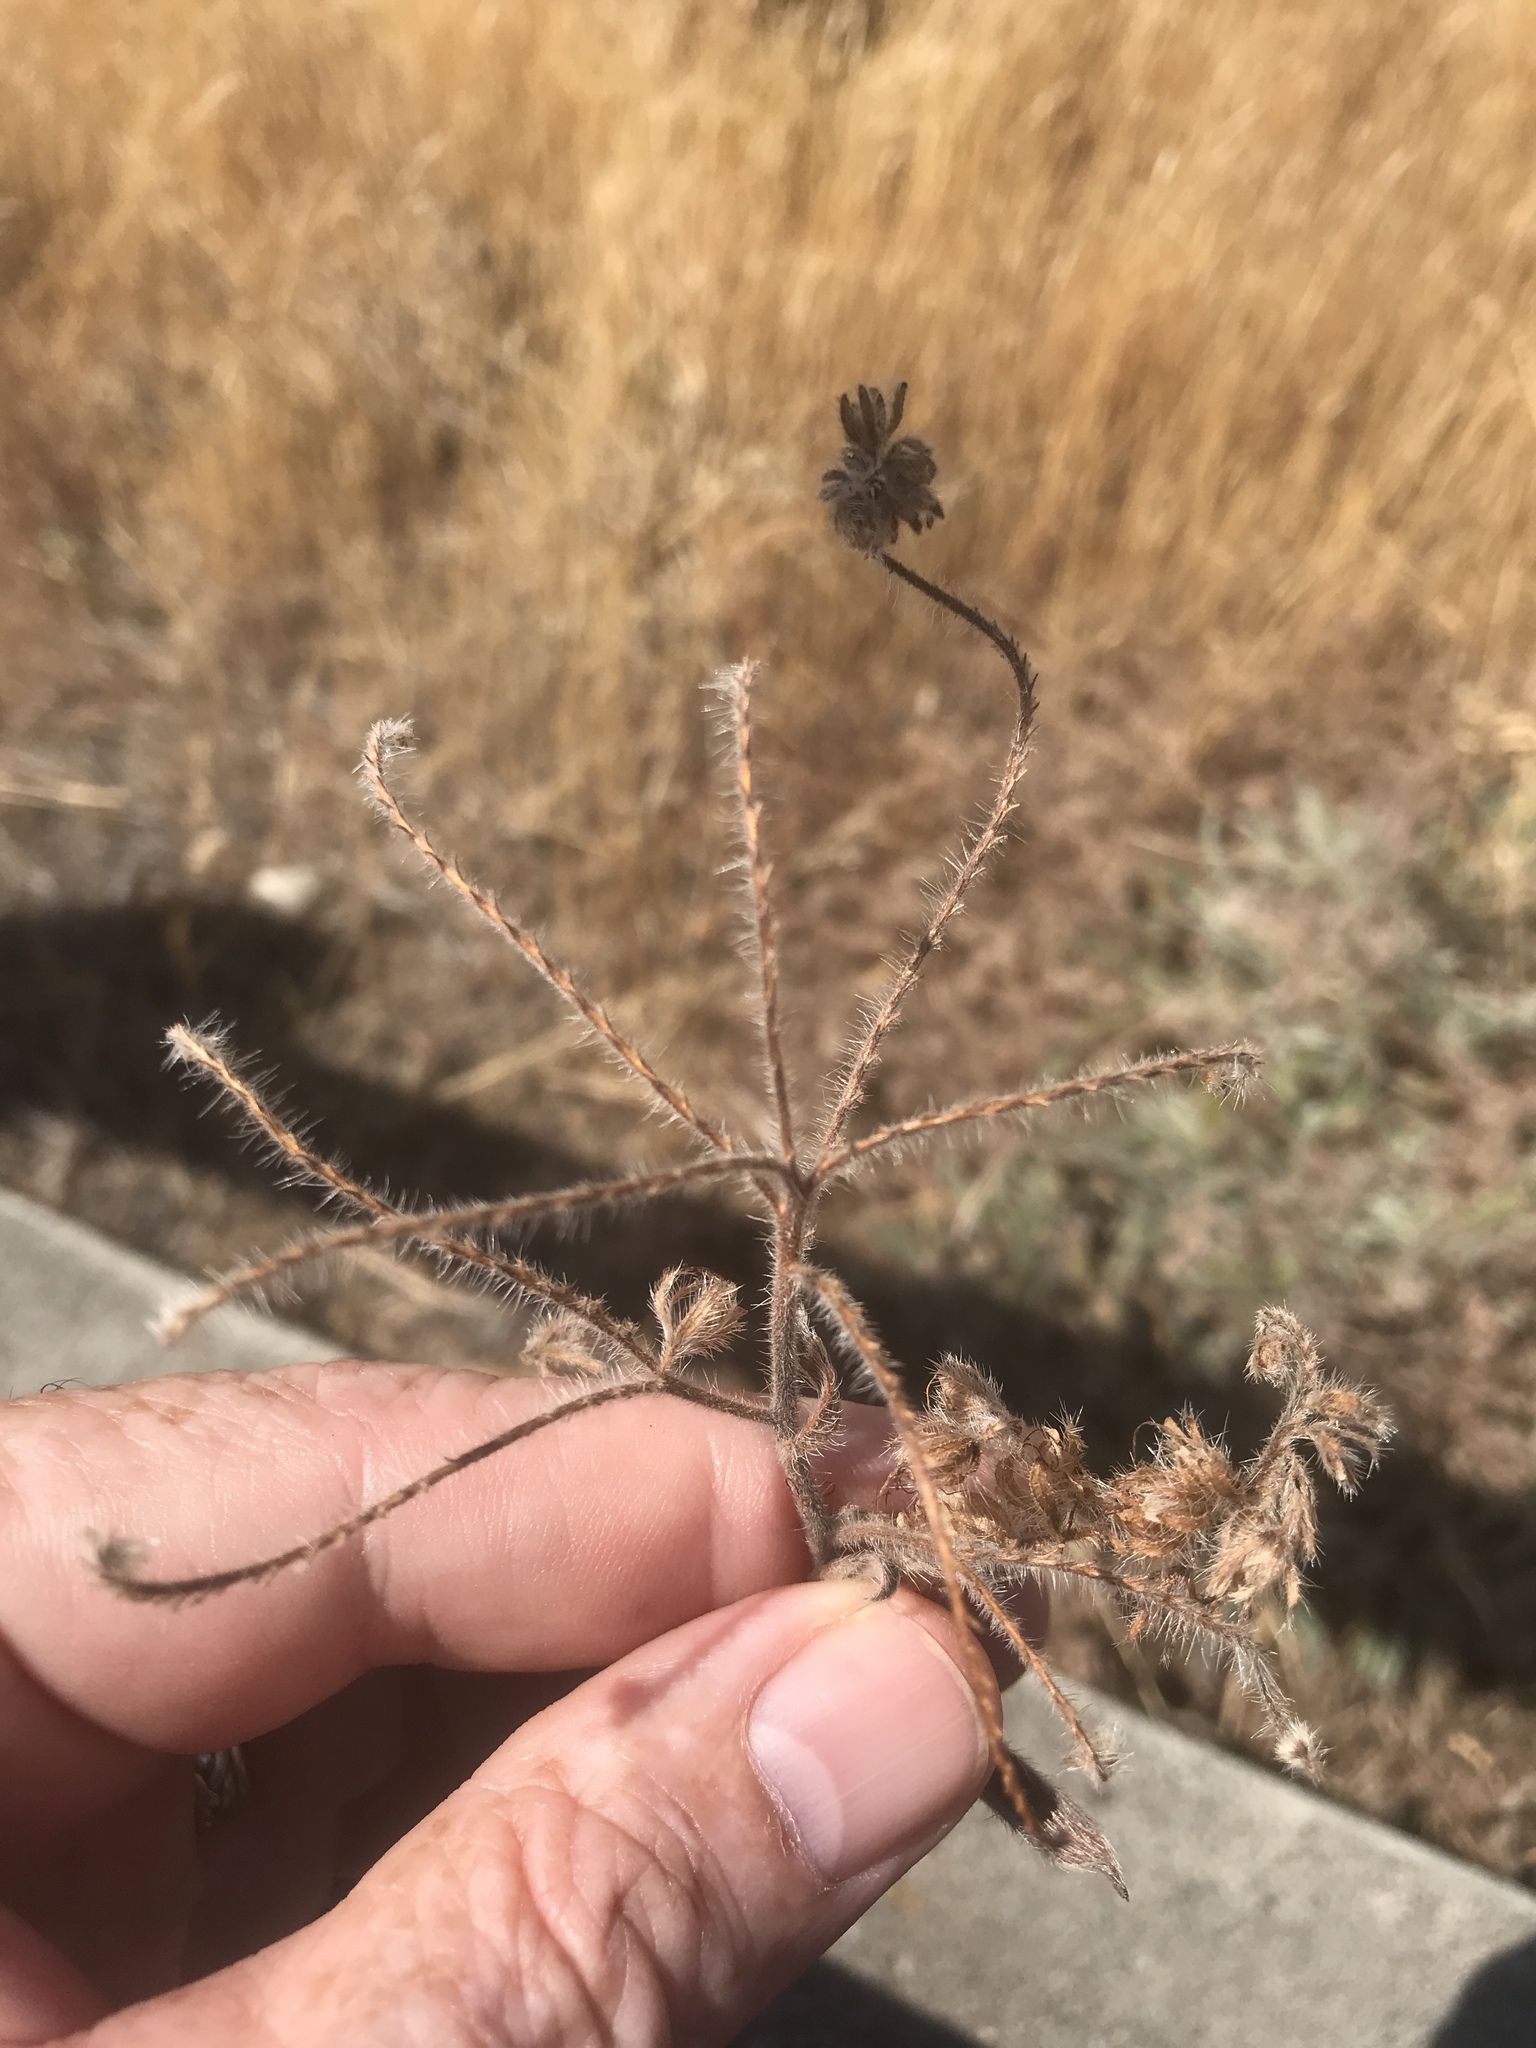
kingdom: Plantae
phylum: Tracheophyta
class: Magnoliopsida
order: Boraginales
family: Hydrophyllaceae
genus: Phacelia
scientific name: Phacelia hastata
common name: Silver-leaved phacelia
